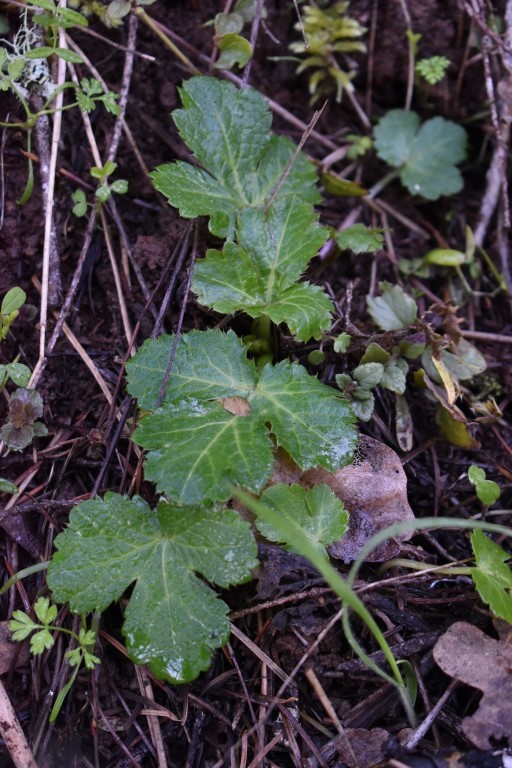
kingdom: Plantae
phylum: Tracheophyta
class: Magnoliopsida
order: Apiales
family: Apiaceae
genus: Sanicula
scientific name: Sanicula crassicaulis
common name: Western snakeroot
